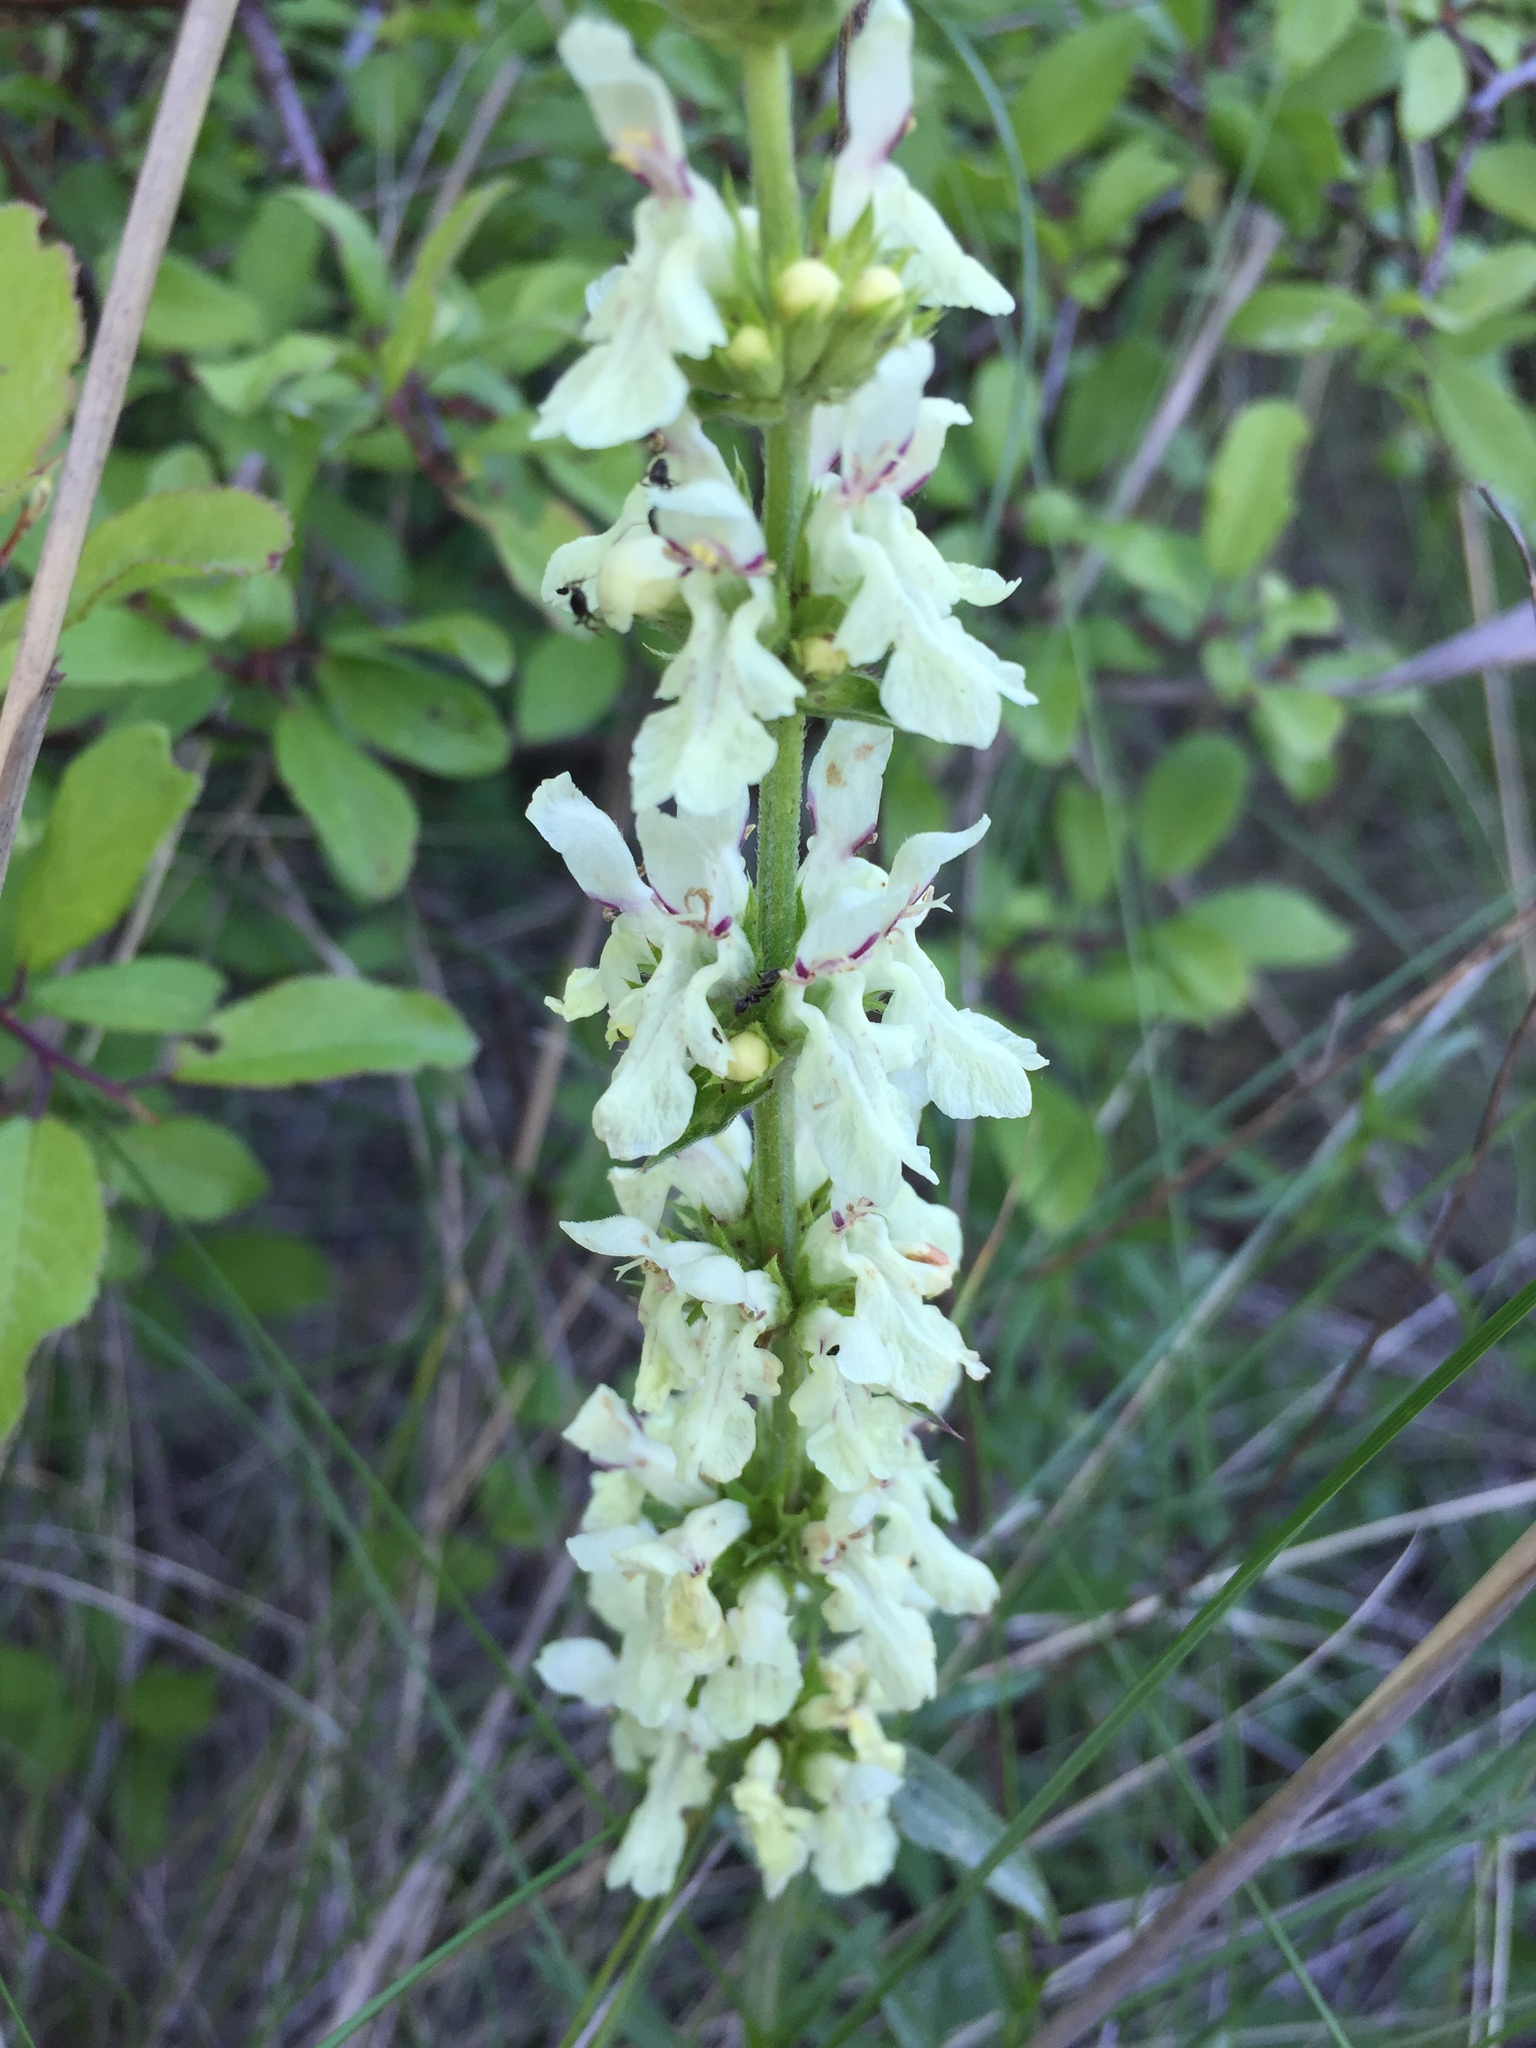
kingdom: Plantae
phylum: Tracheophyta
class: Magnoliopsida
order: Lamiales
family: Lamiaceae
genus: Stachys
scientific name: Stachys recta
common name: Perennial yellow-woundwort
